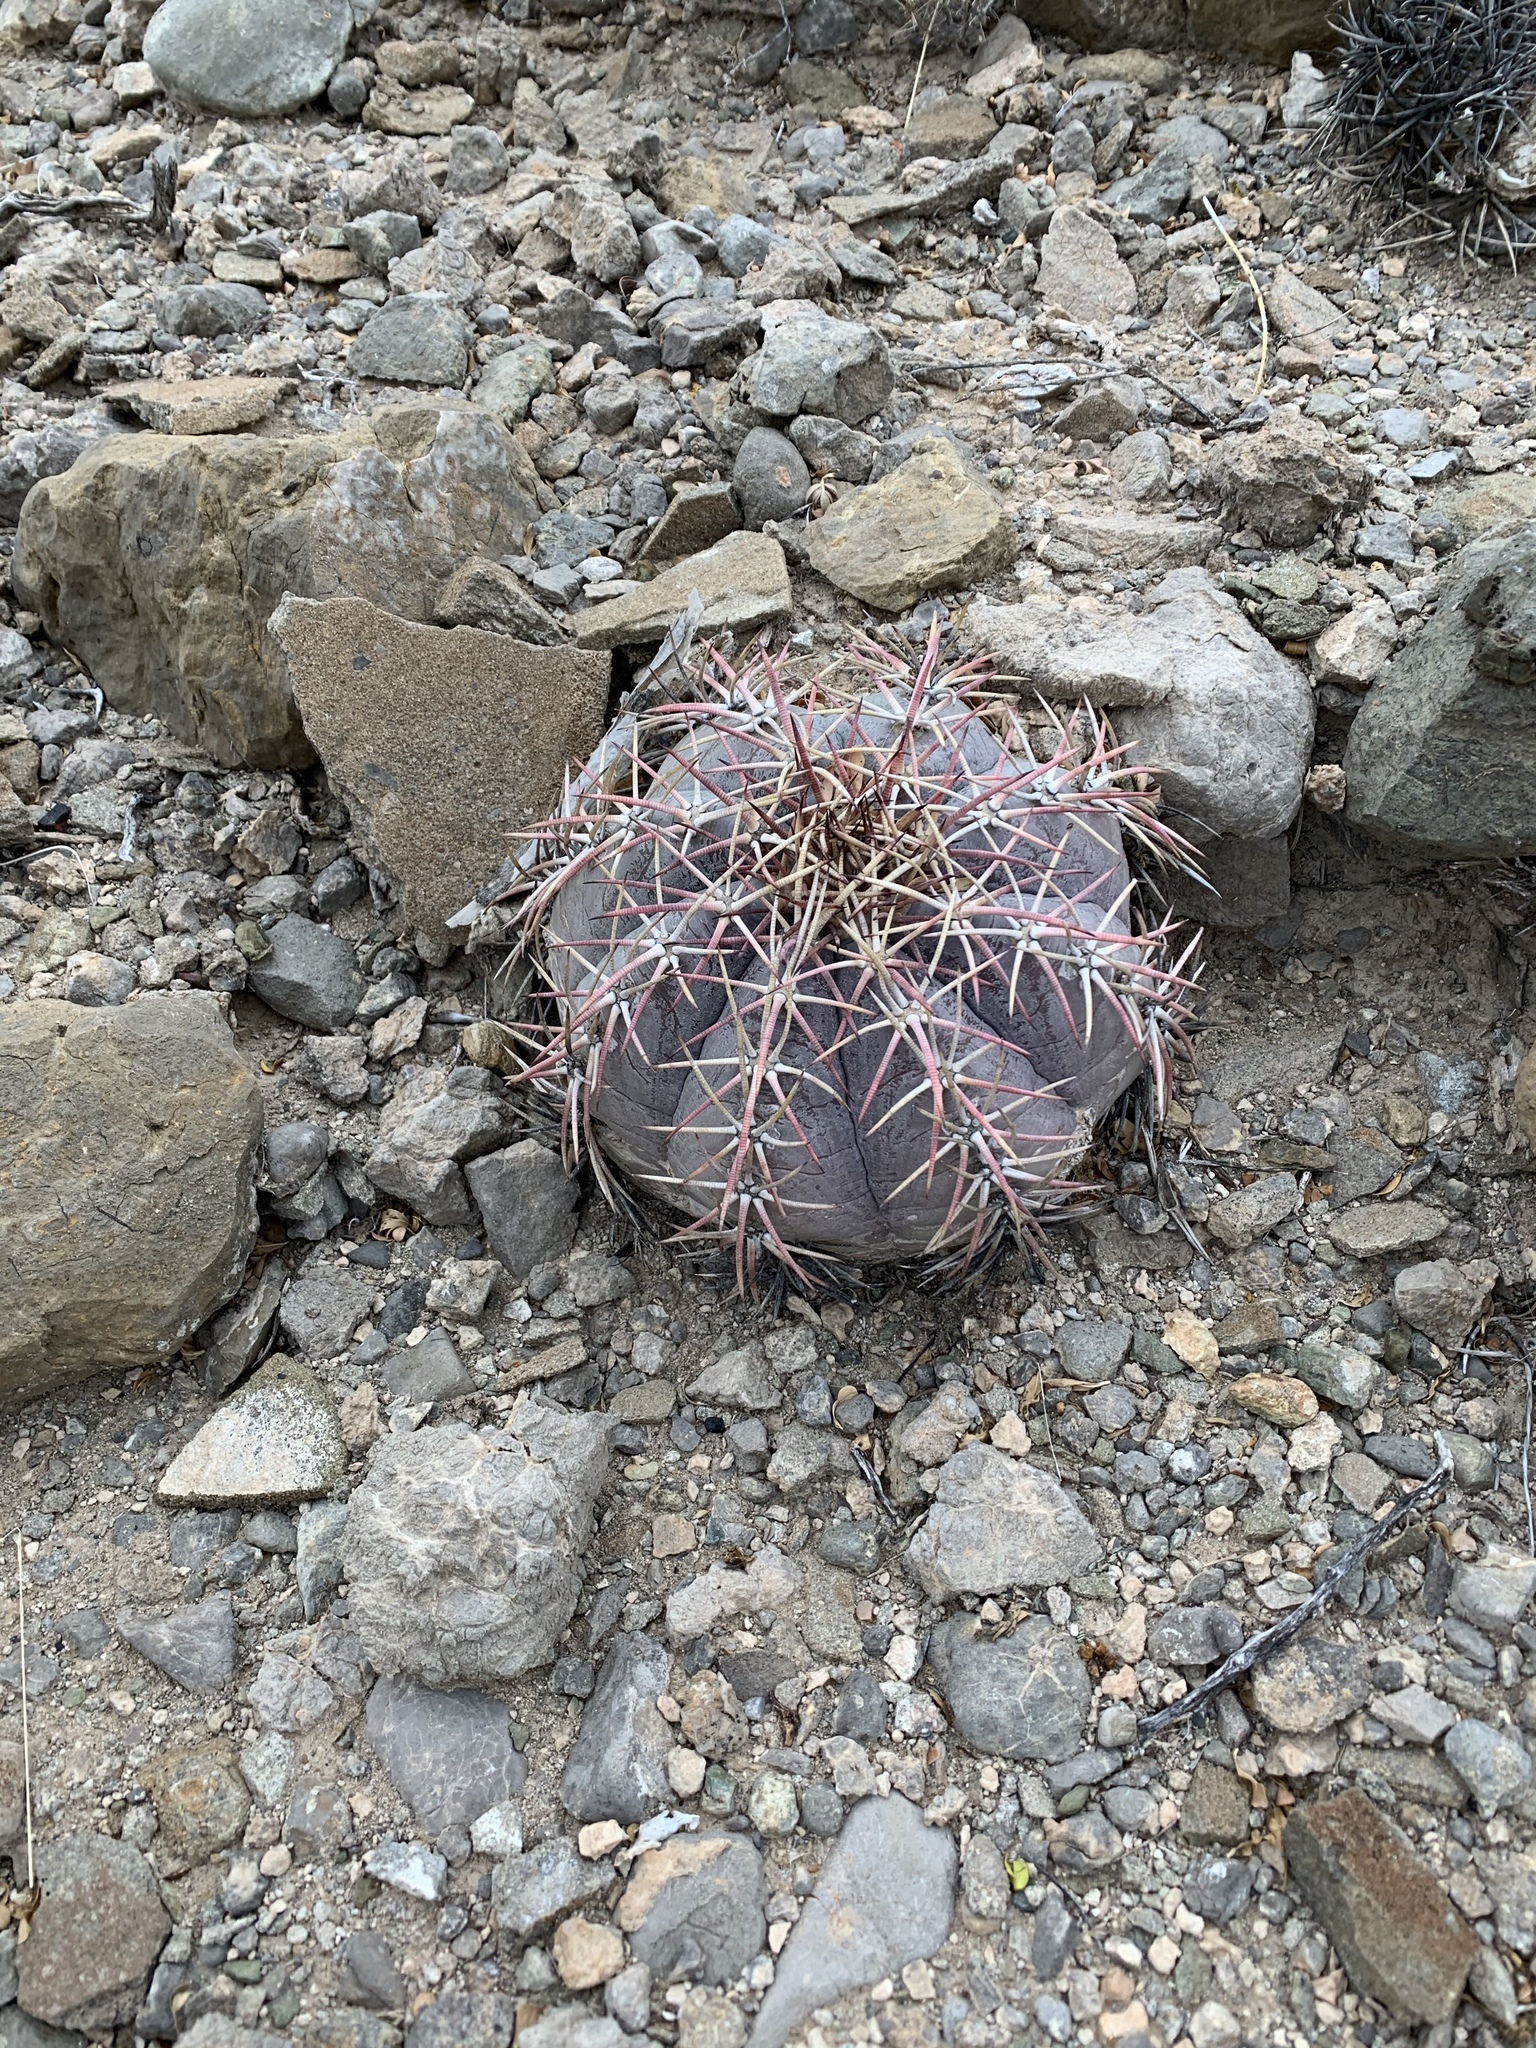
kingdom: Plantae
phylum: Tracheophyta
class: Magnoliopsida
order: Caryophyllales
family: Cactaceae
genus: Echinocactus
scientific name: Echinocactus horizonthalonius
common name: Devilshead
